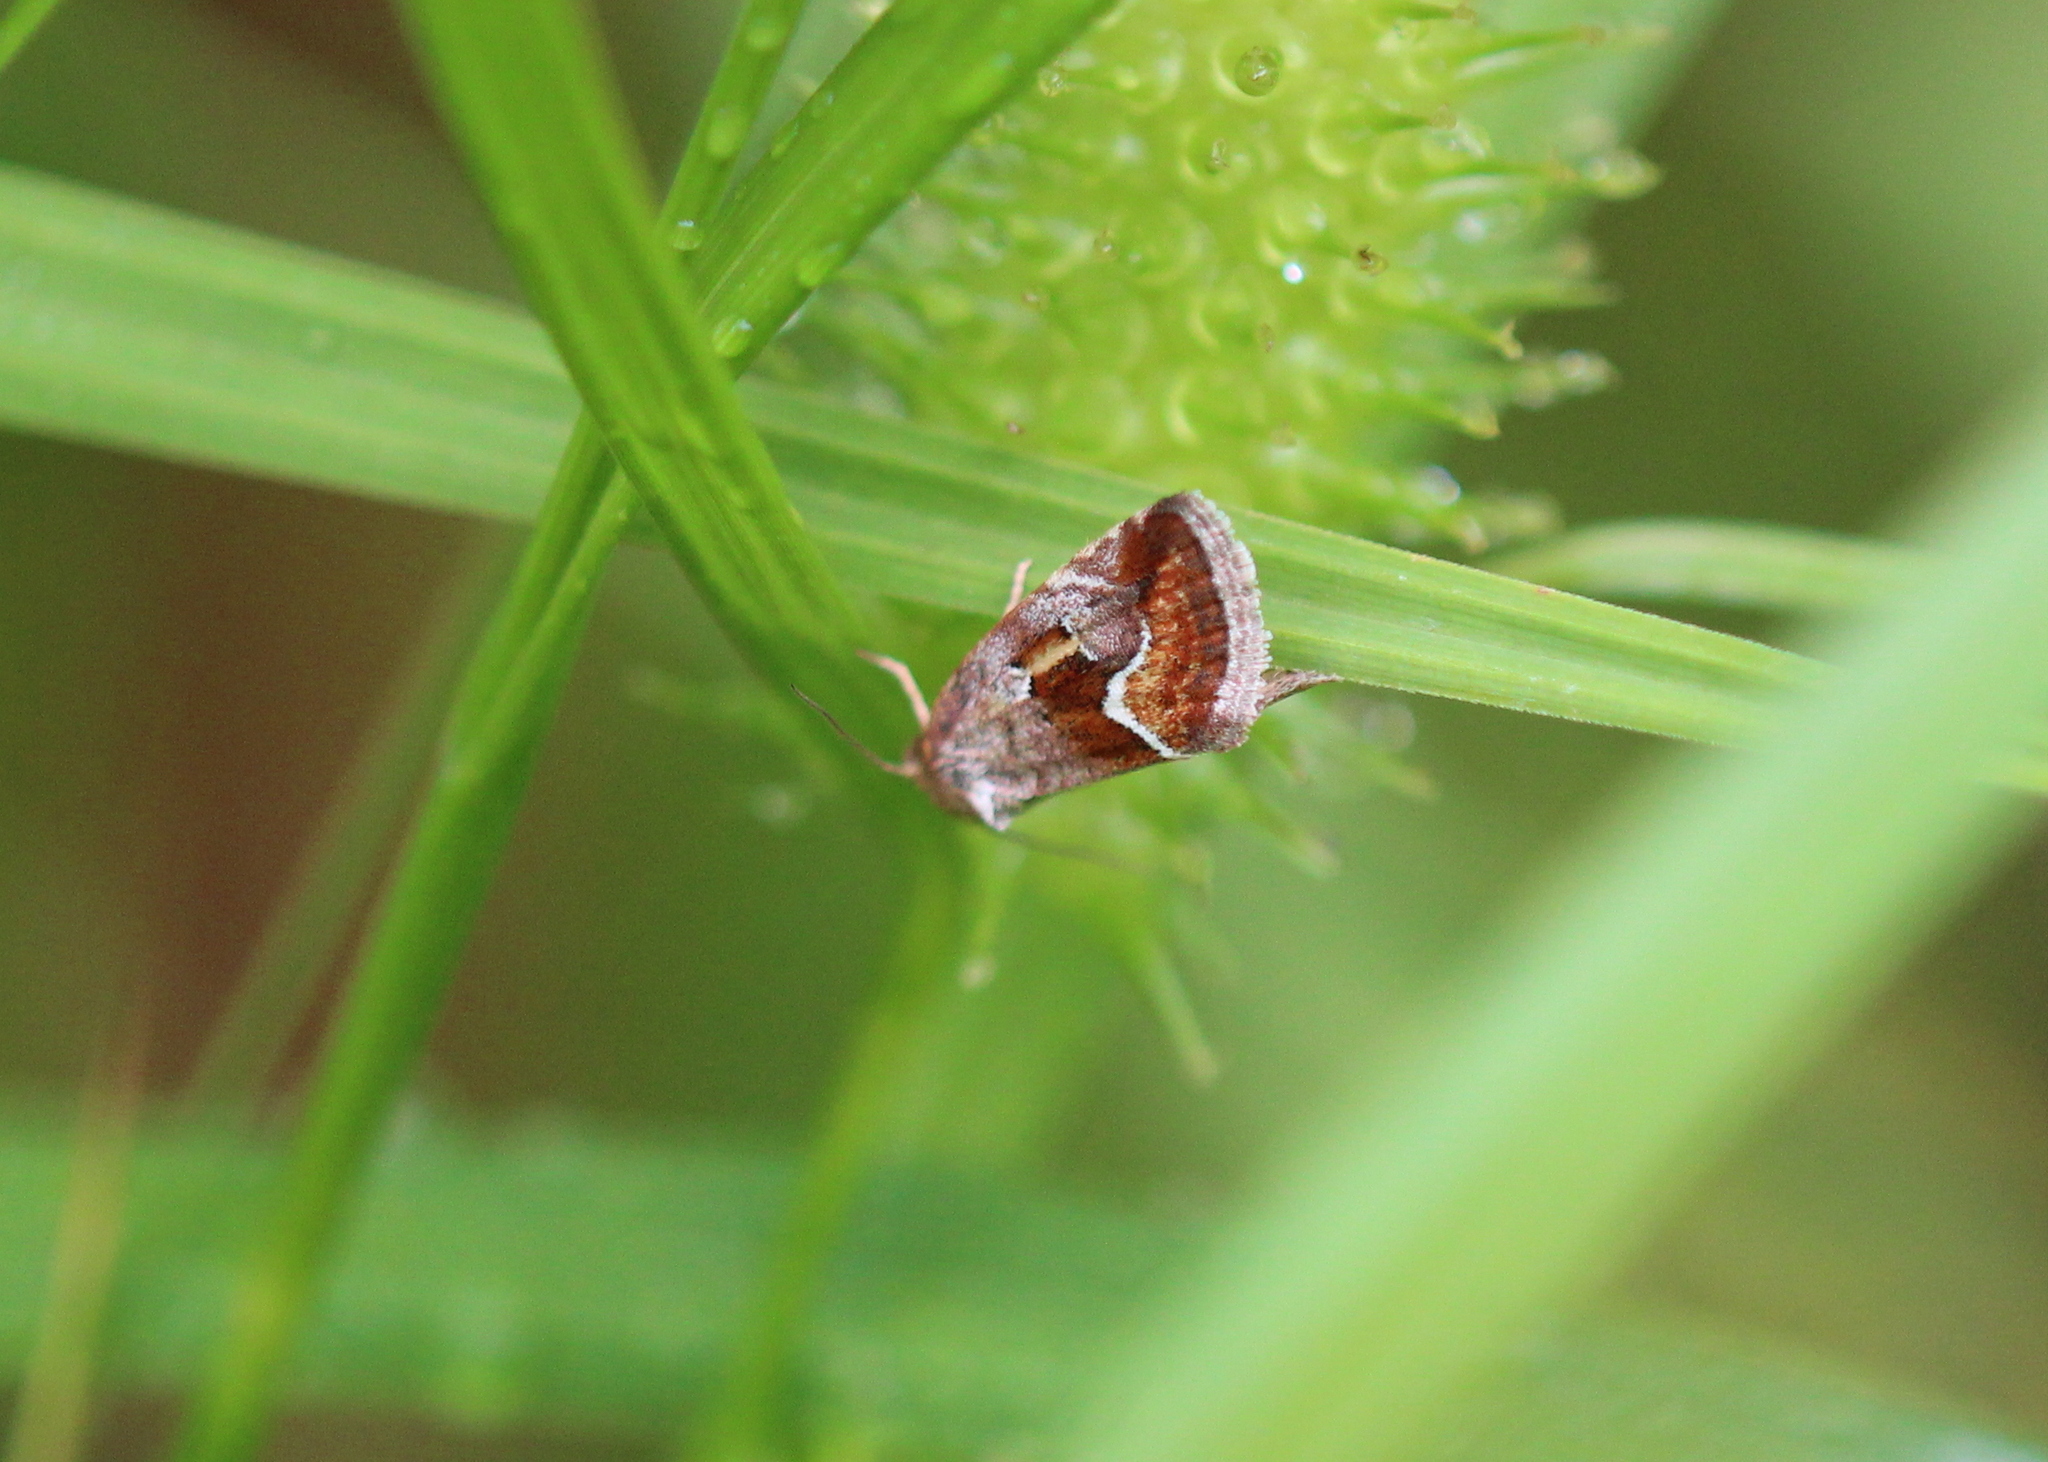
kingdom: Animalia
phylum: Arthropoda
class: Insecta
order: Lepidoptera
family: Noctuidae
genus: Deltote
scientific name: Deltote bellicula
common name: Bog glyph
